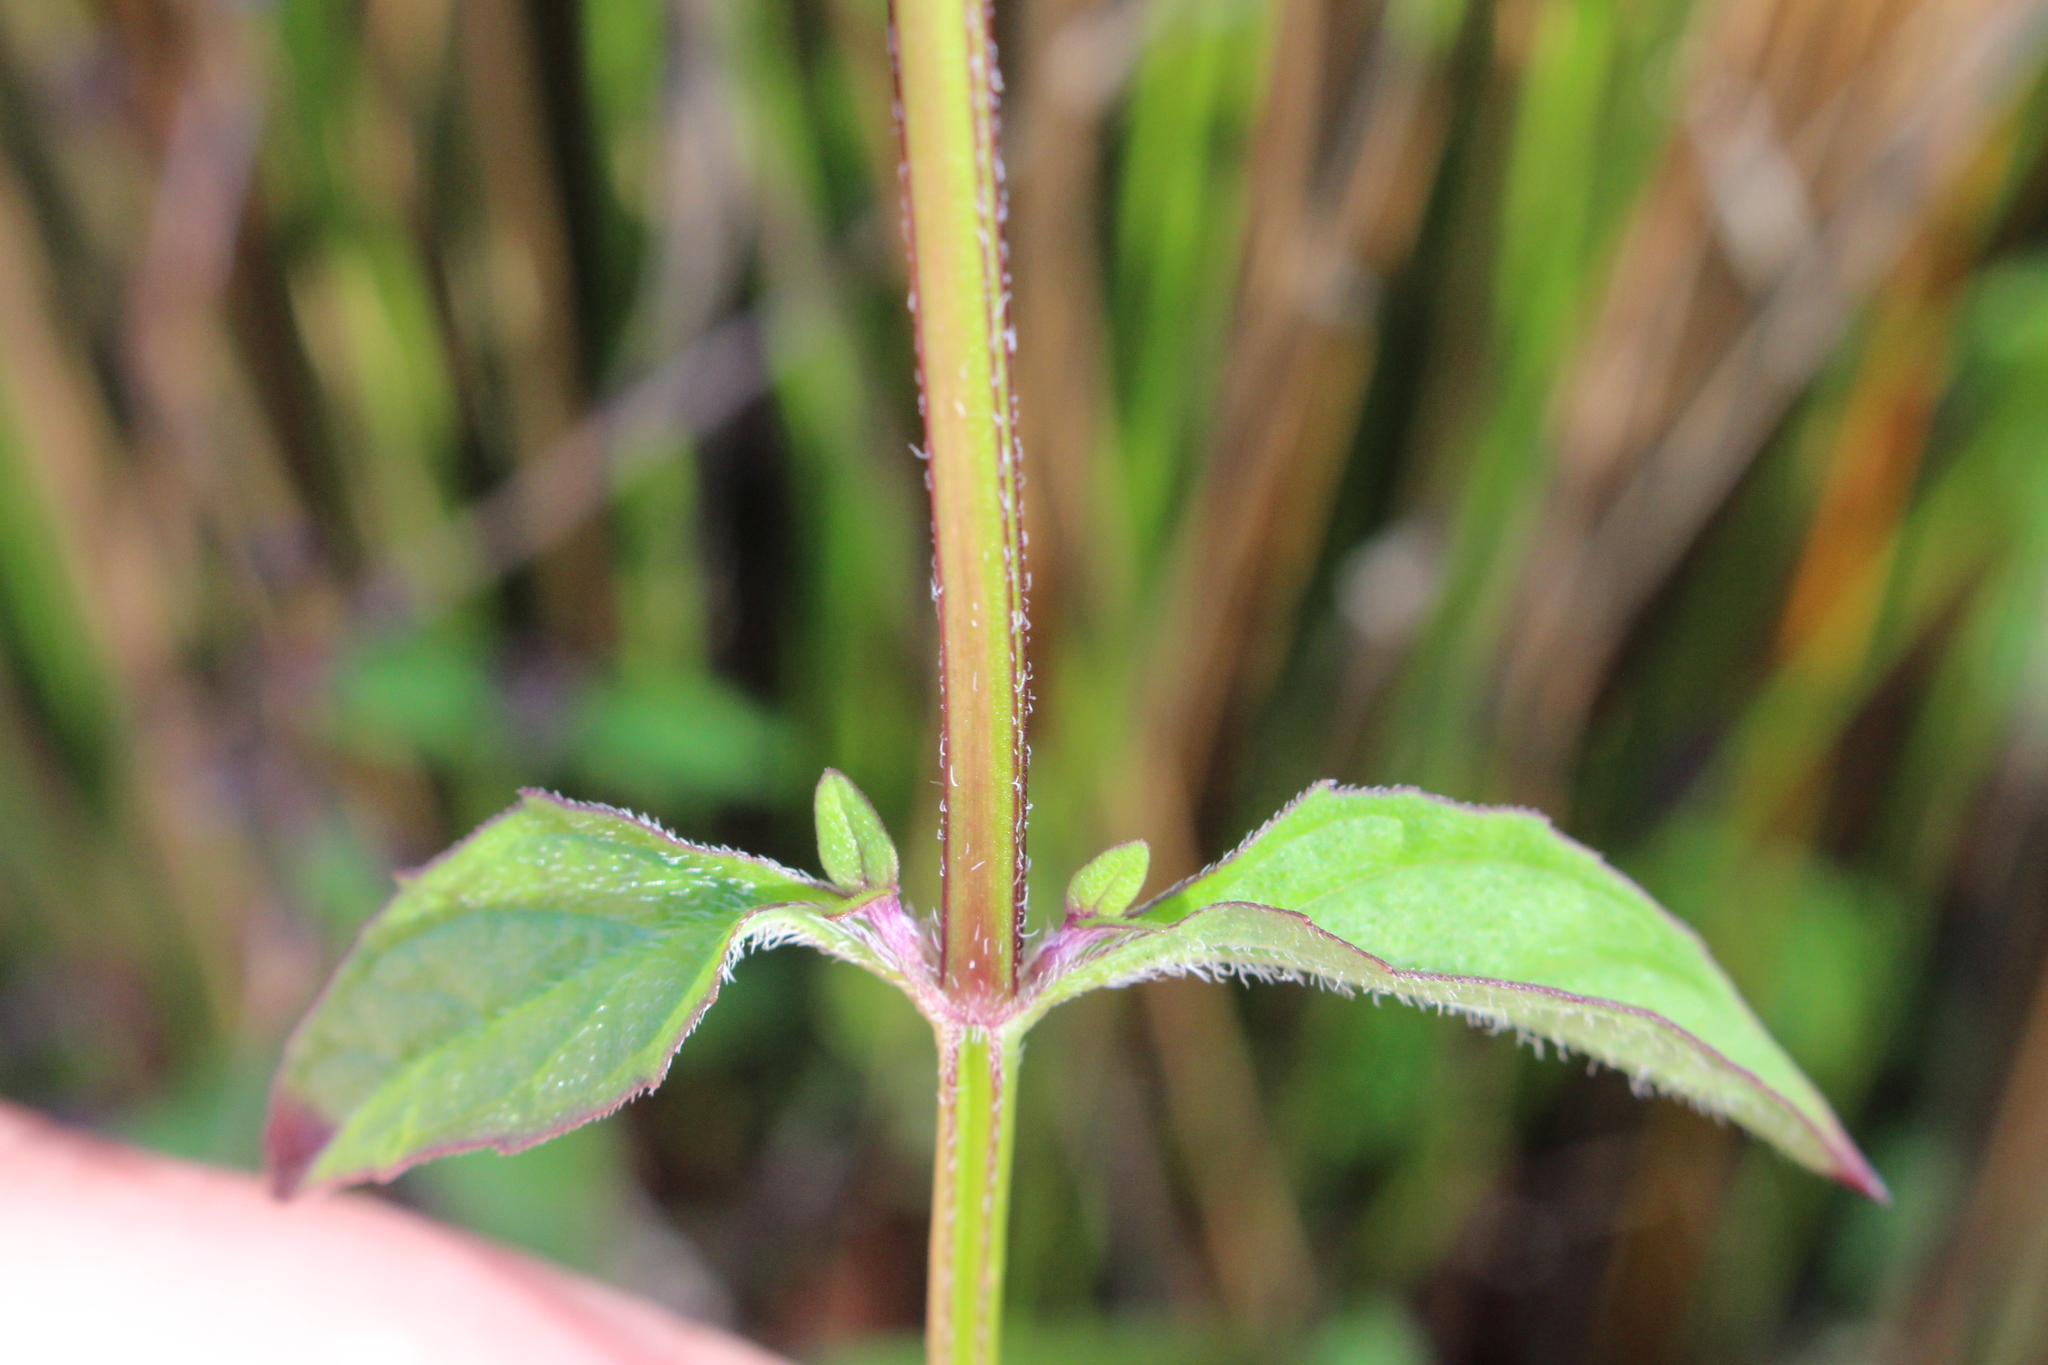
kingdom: Plantae
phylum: Tracheophyta
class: Magnoliopsida
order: Lamiales
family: Lamiaceae
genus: Prunella
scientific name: Prunella vulgaris
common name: Heal-all
